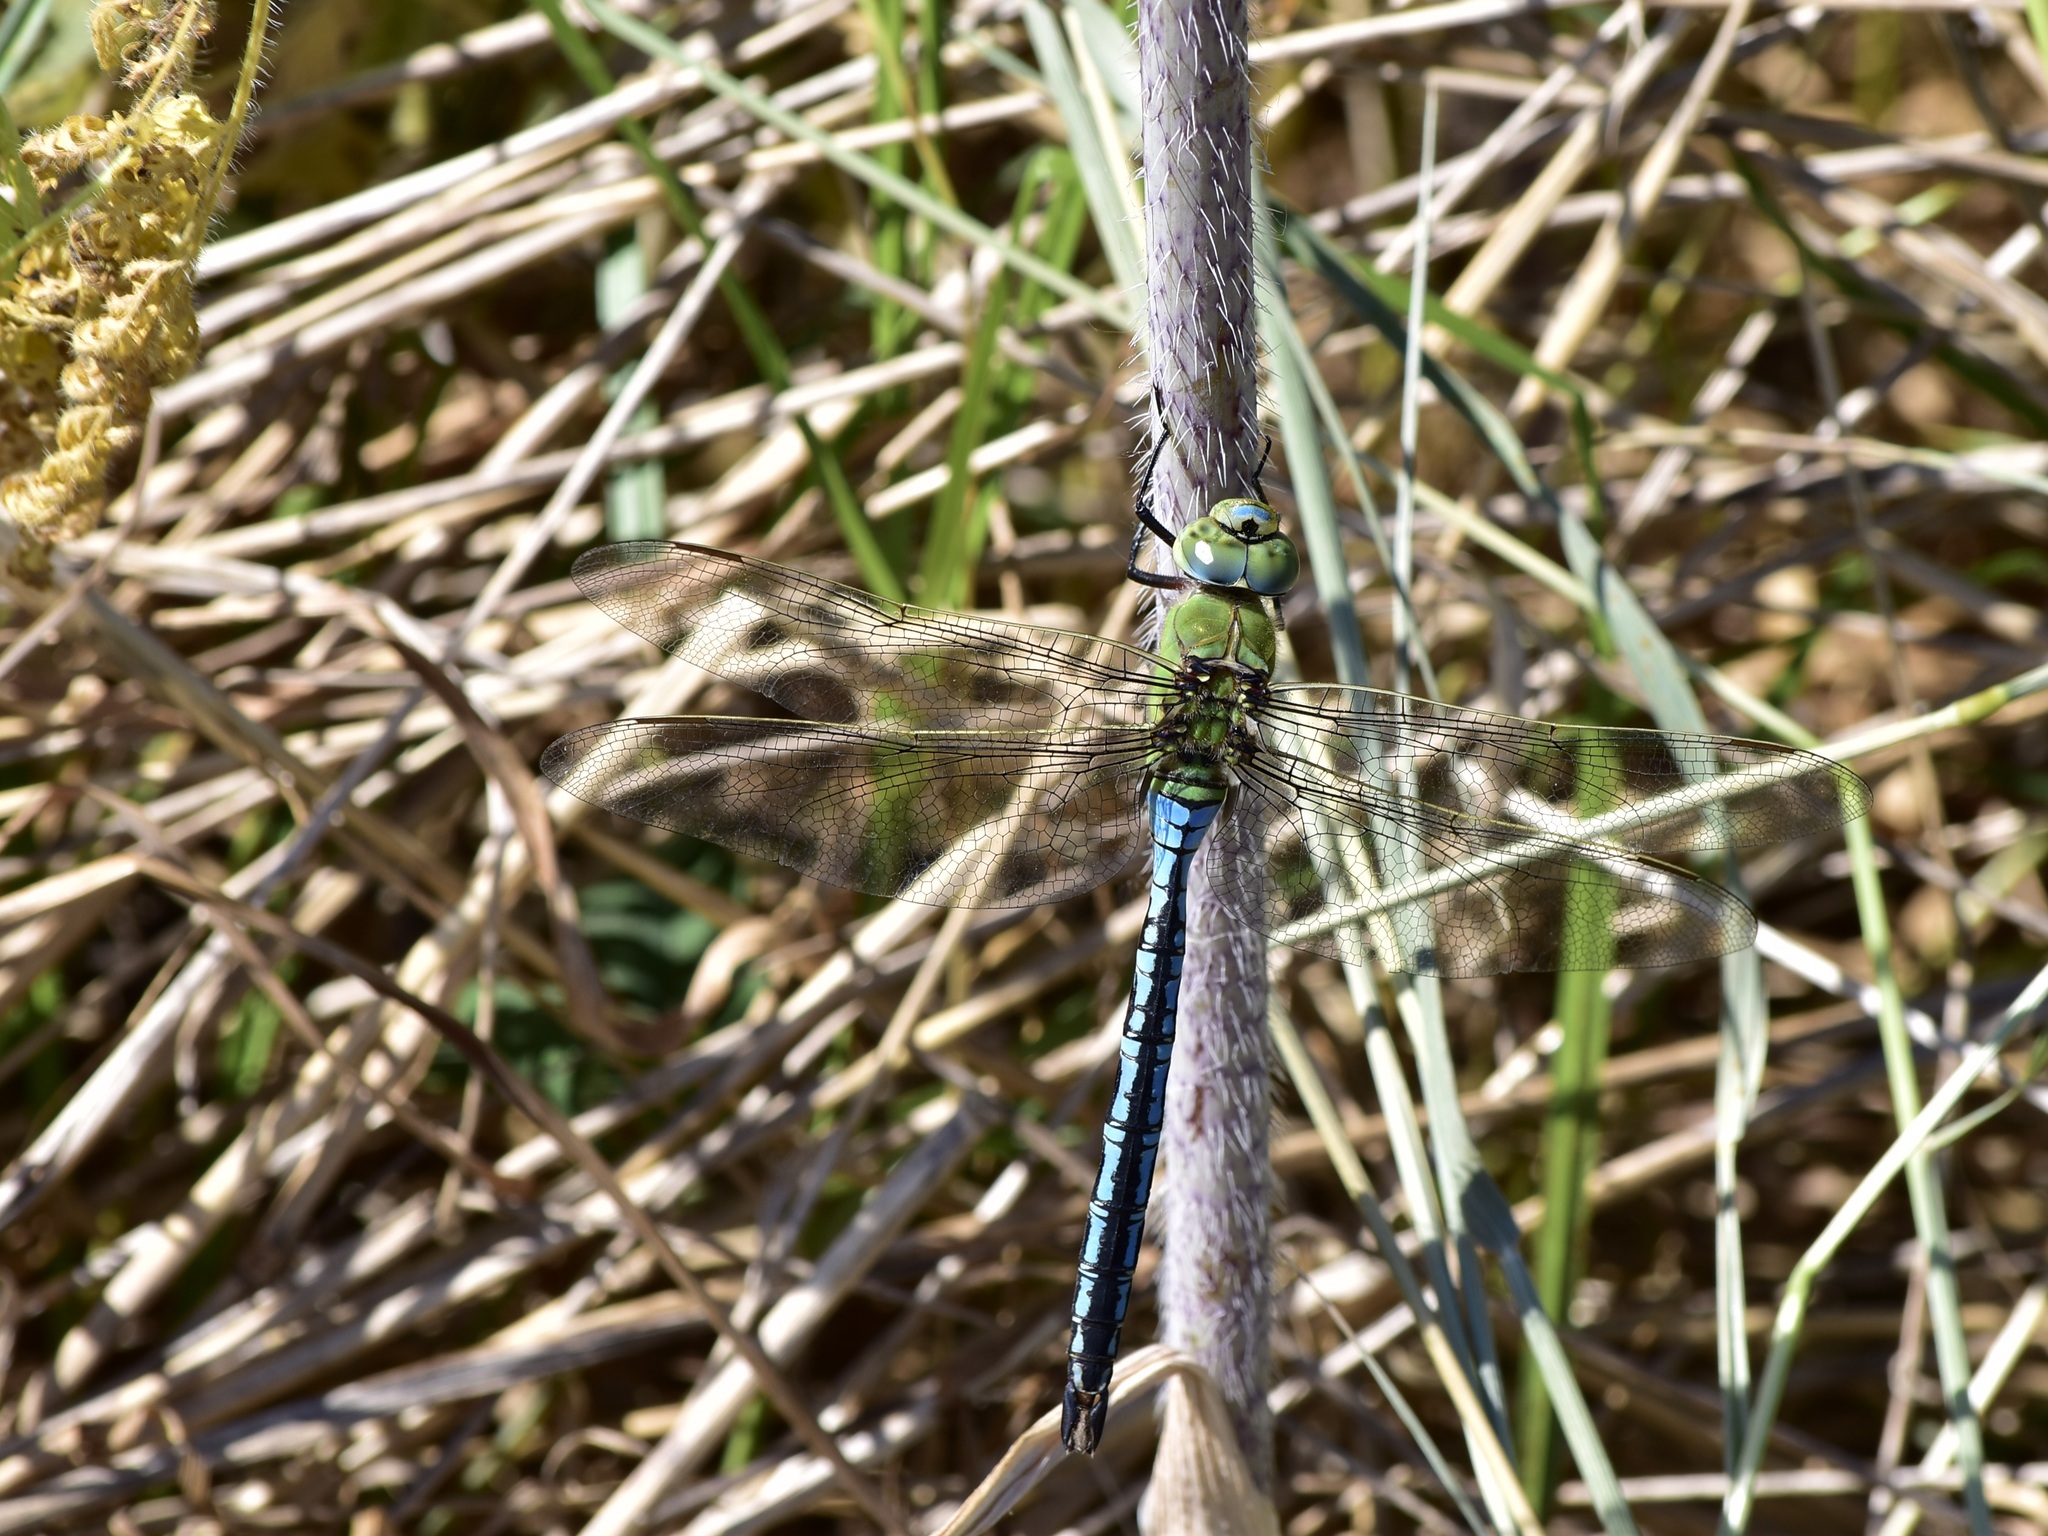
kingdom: Animalia
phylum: Arthropoda
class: Insecta
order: Odonata
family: Aeshnidae
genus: Anax
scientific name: Anax imperator
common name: Emperor dragonfly
